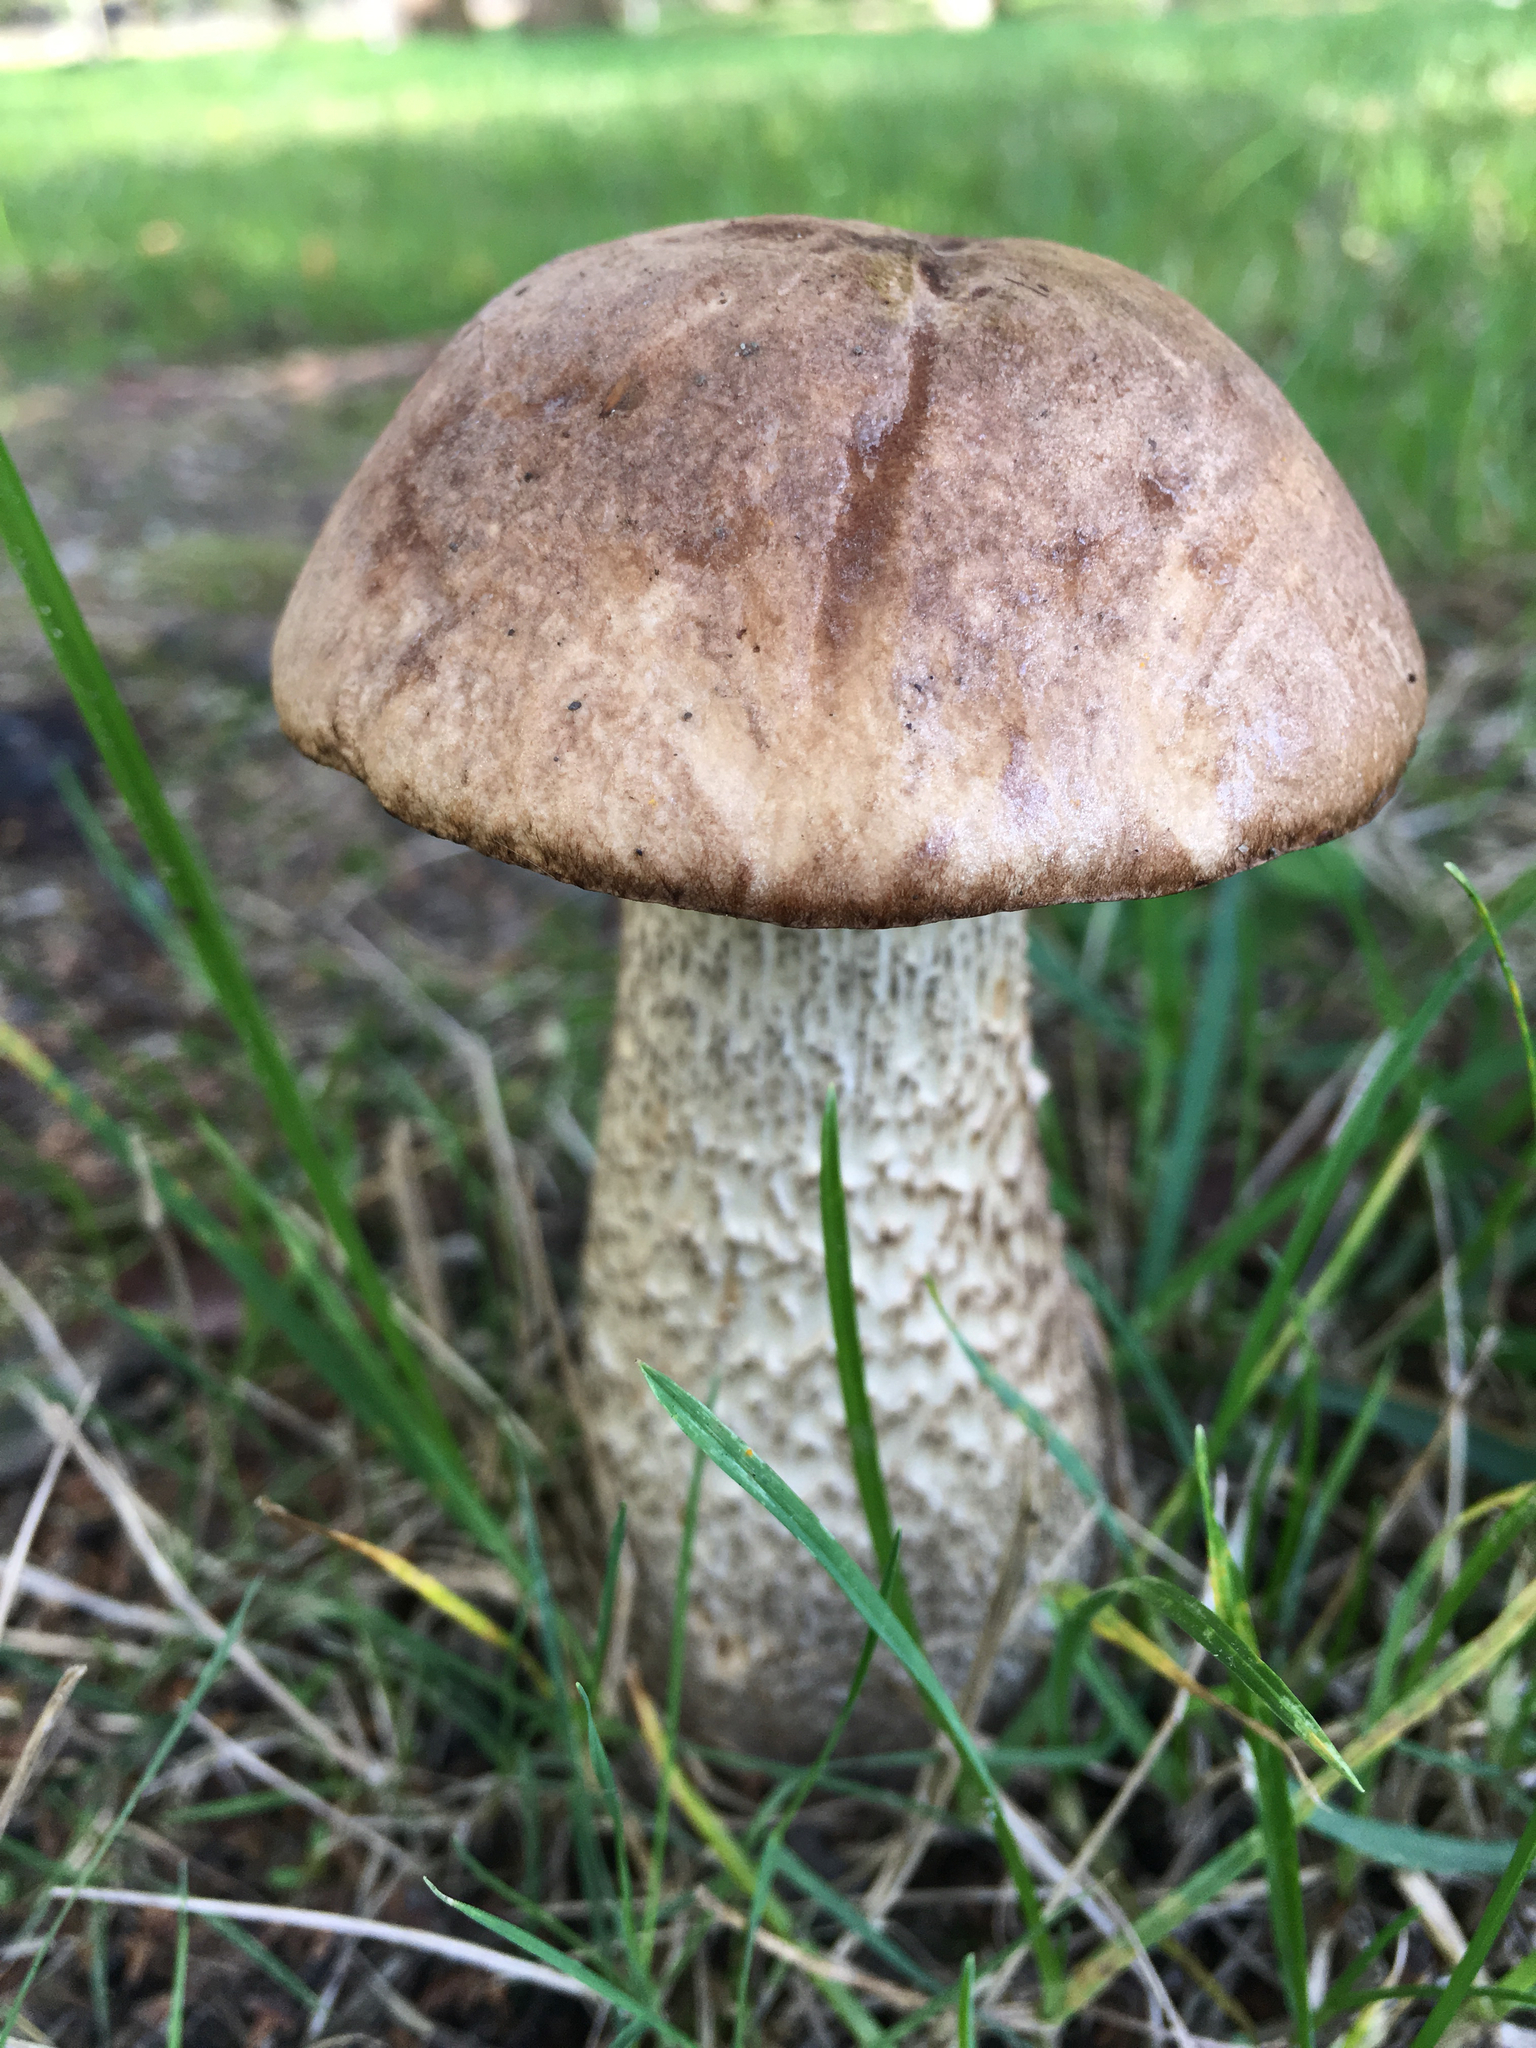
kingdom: Fungi
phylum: Basidiomycota
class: Agaricomycetes
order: Boletales
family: Boletaceae
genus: Leccinum
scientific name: Leccinum scabrum
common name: Blushing bolete
